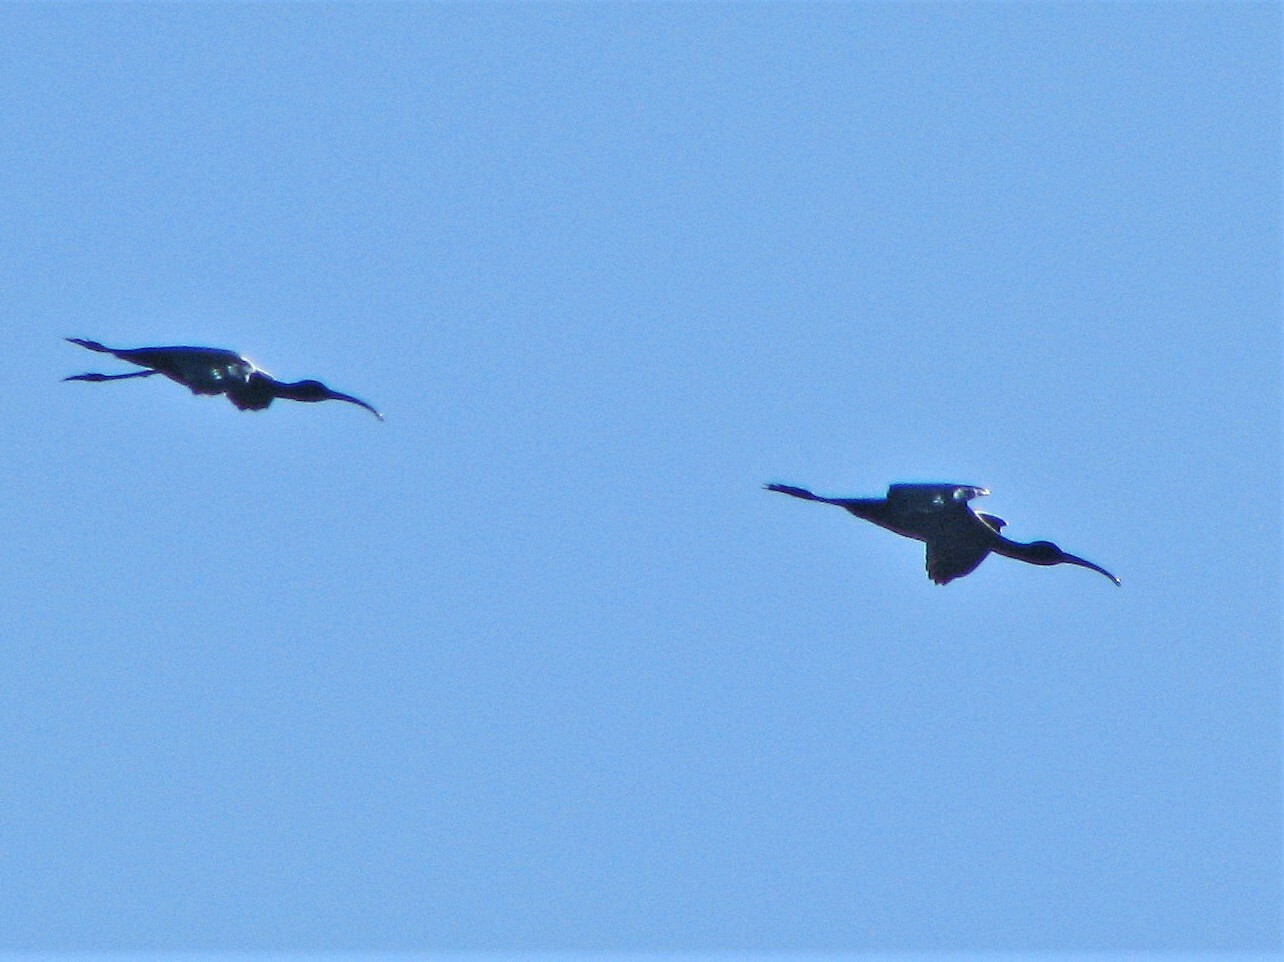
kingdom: Animalia
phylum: Chordata
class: Aves
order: Pelecaniformes
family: Threskiornithidae
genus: Plegadis
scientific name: Plegadis chihi
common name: White-faced ibis
